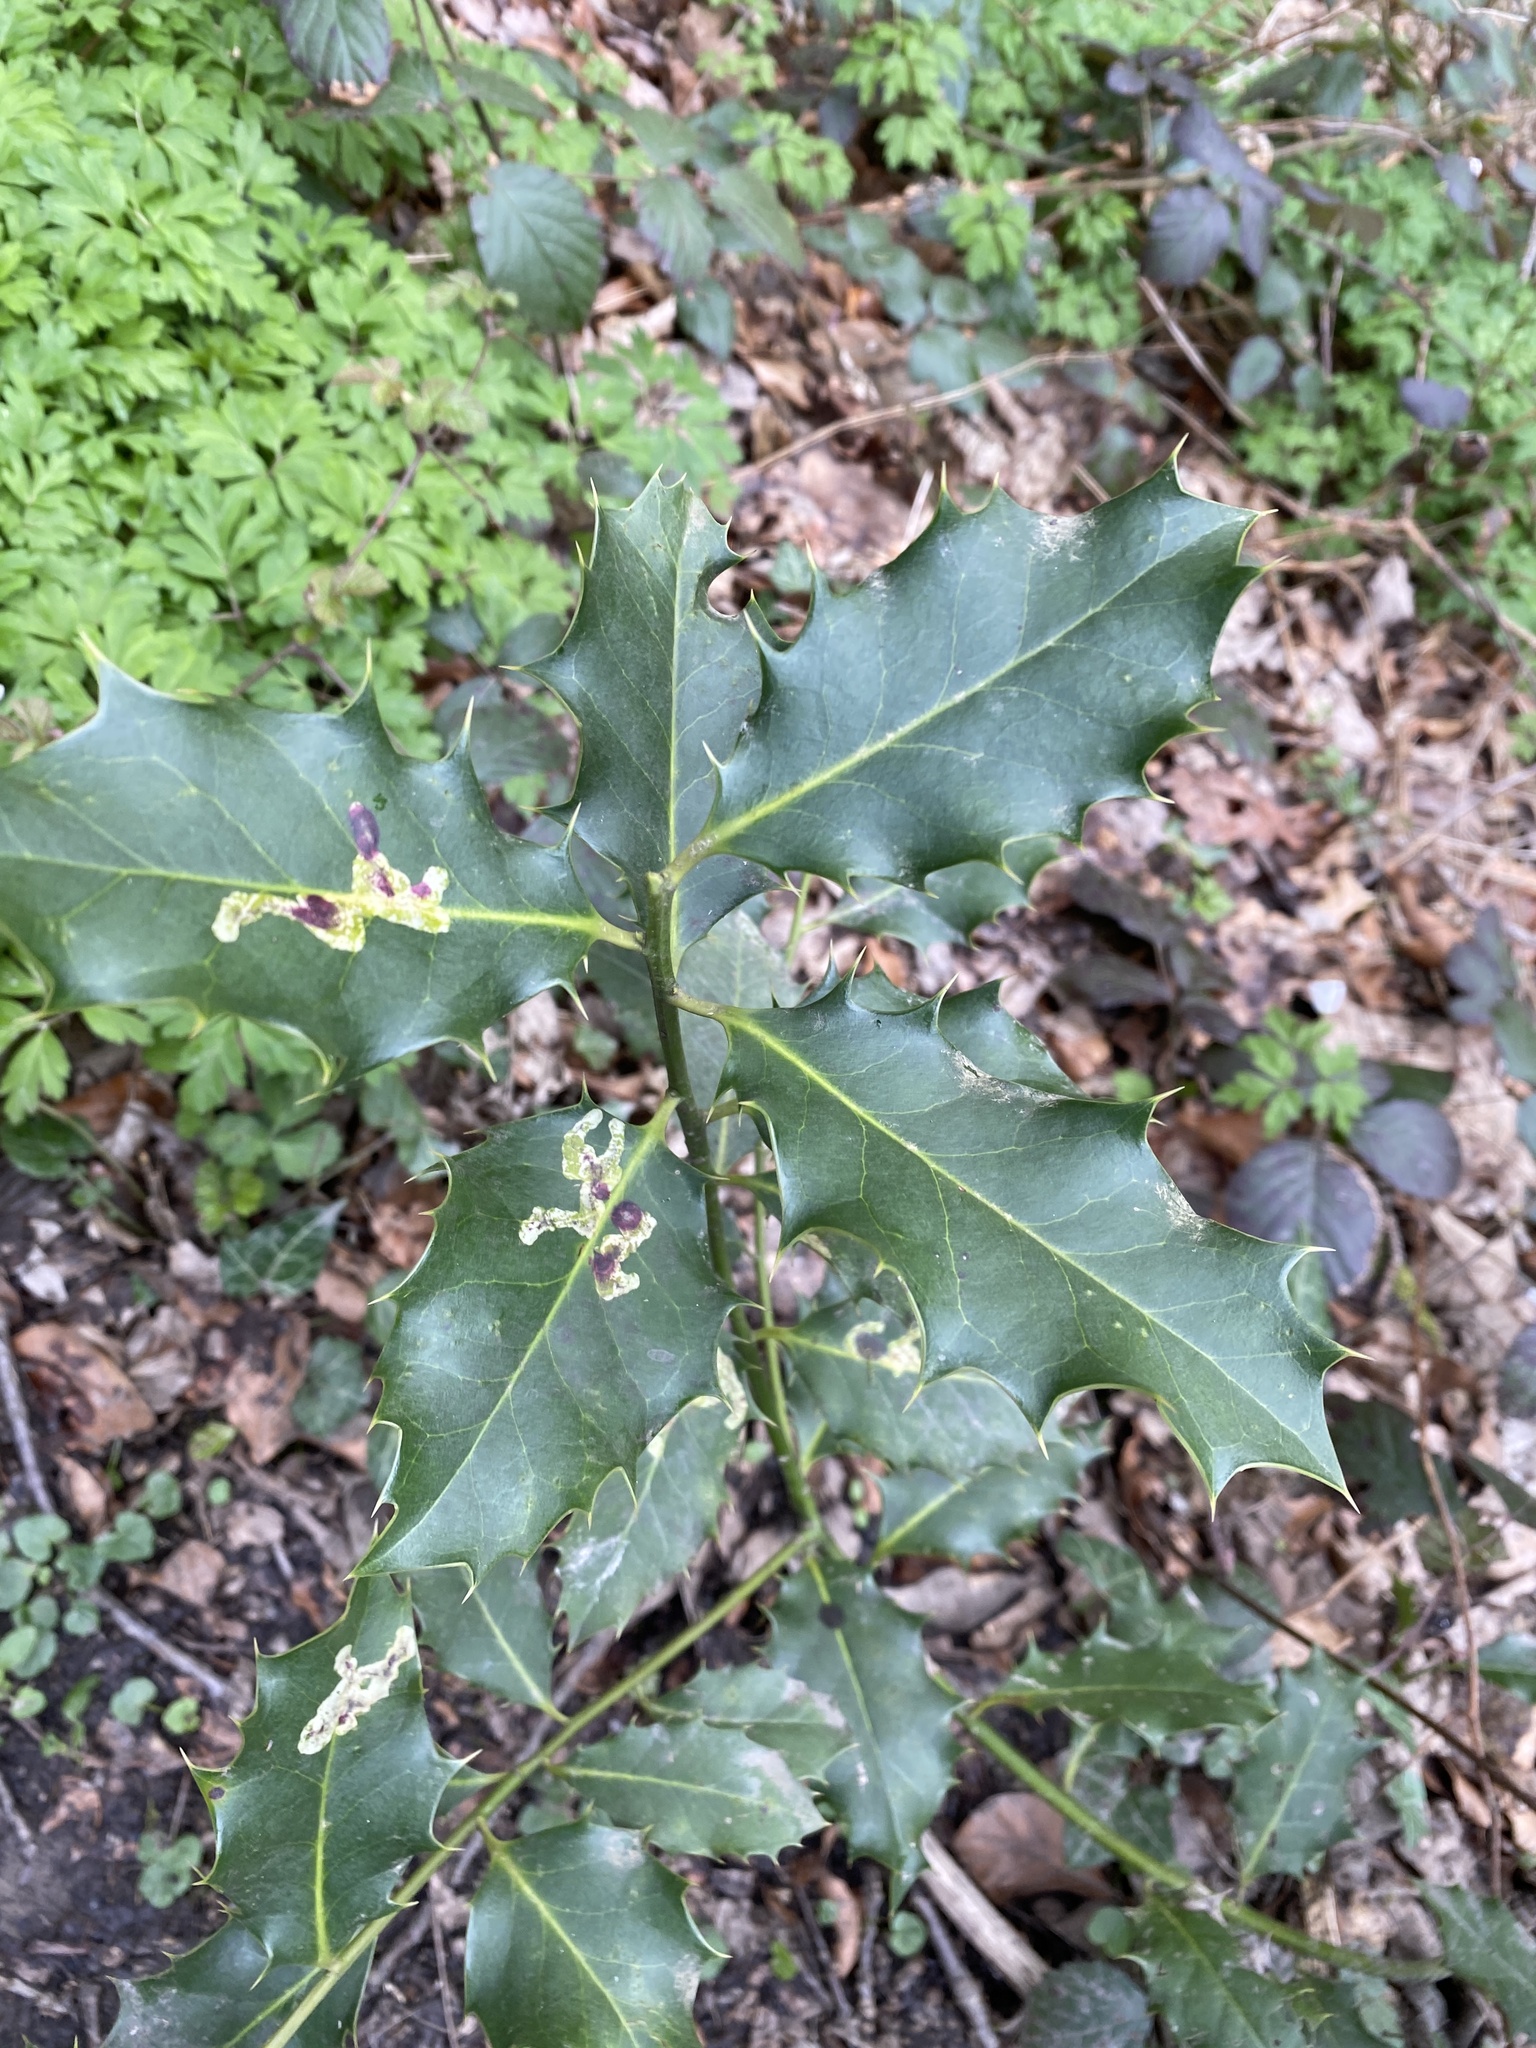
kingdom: Animalia
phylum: Arthropoda
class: Insecta
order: Diptera
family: Agromyzidae
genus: Phytomyza
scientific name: Phytomyza ilicis
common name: Holly leafminer
